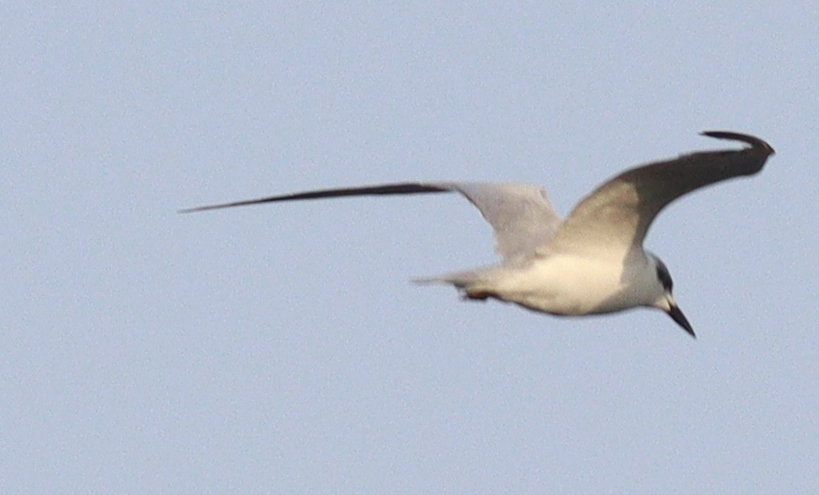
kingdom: Animalia
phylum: Chordata
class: Aves
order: Charadriiformes
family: Laridae
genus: Gelochelidon
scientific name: Gelochelidon nilotica
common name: Gull-billed tern
